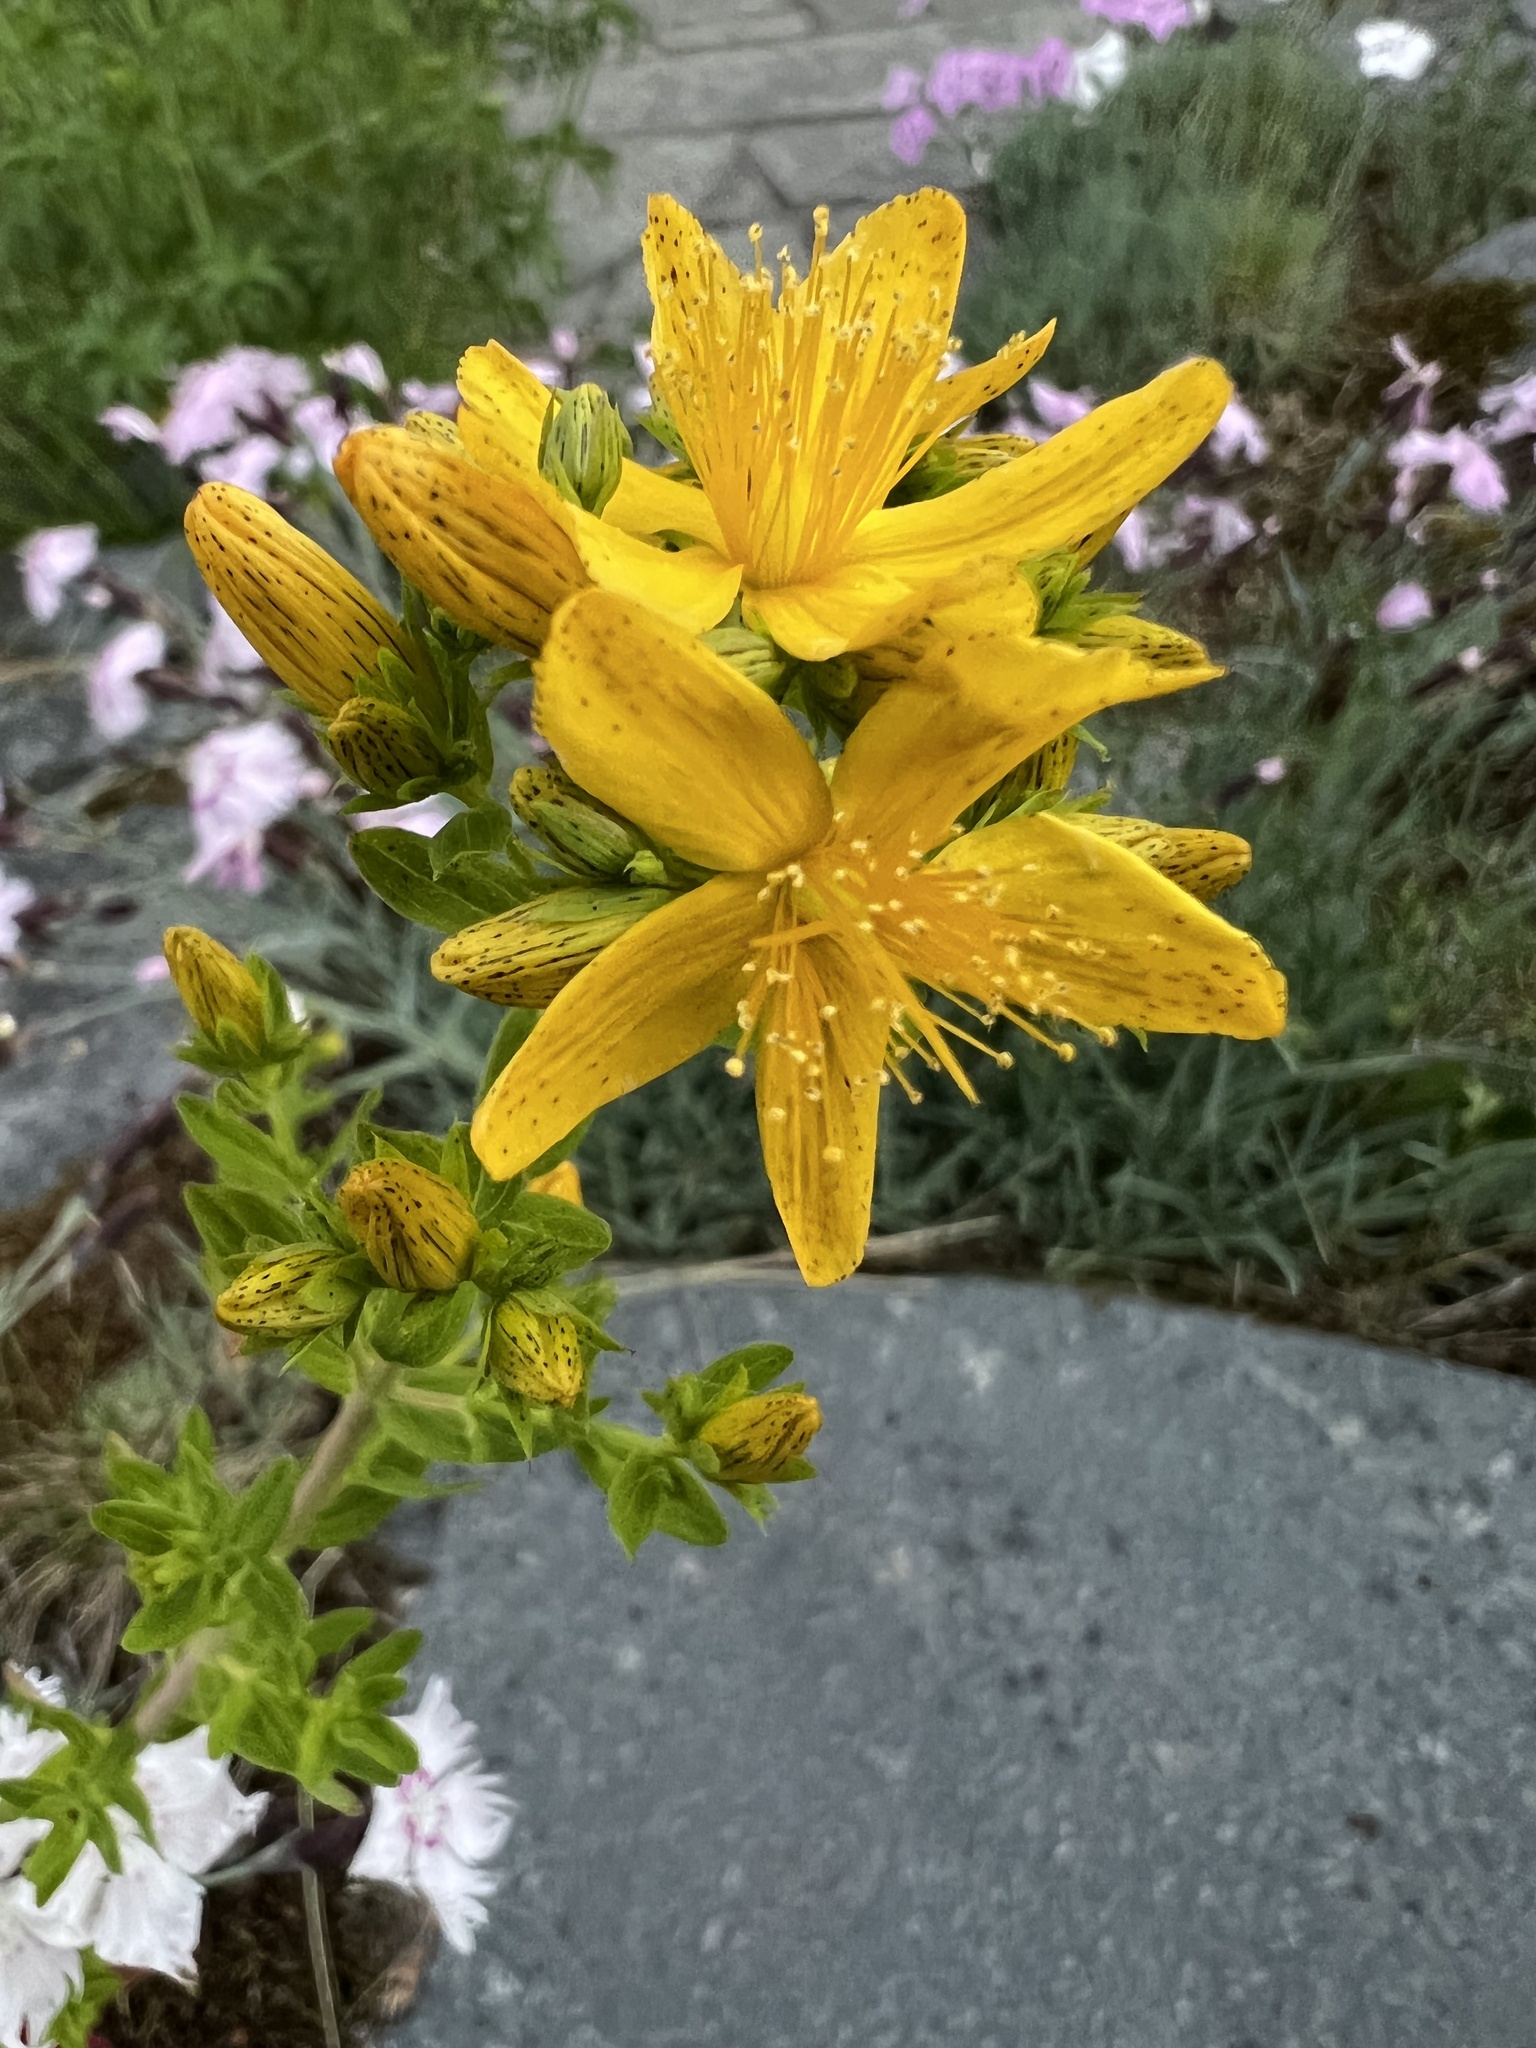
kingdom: Plantae
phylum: Tracheophyta
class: Magnoliopsida
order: Malpighiales
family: Hypericaceae
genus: Hypericum
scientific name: Hypericum perforatum
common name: Common st. johnswort
